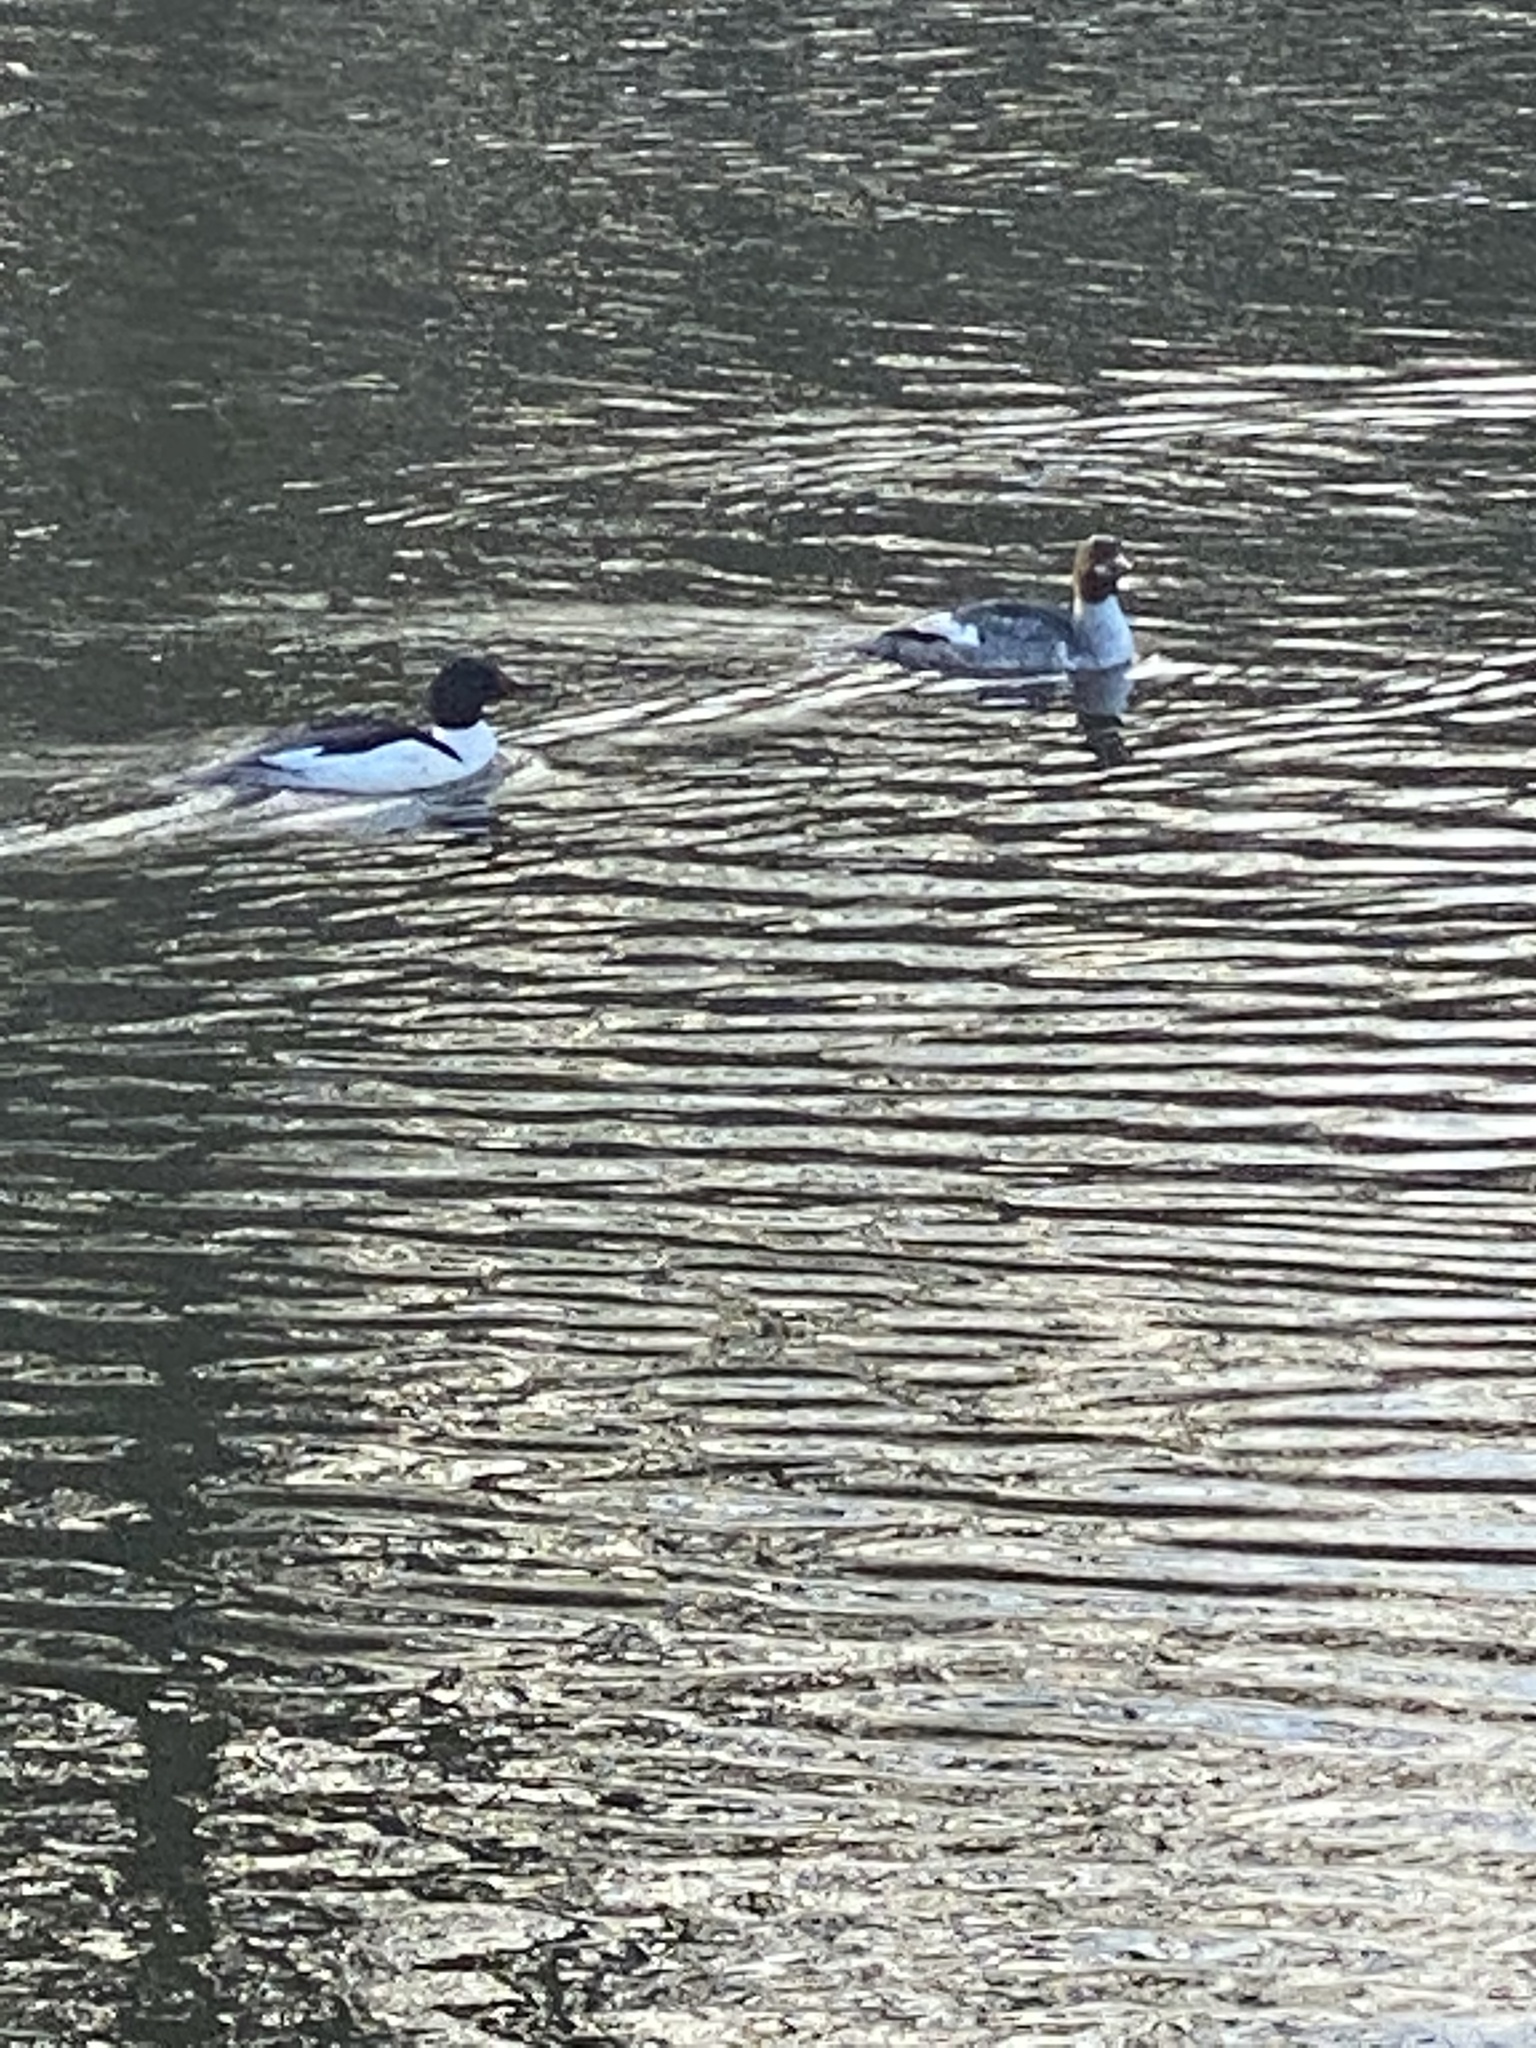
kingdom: Animalia
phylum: Chordata
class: Aves
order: Anseriformes
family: Anatidae
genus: Mergus
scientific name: Mergus merganser
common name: Common merganser
